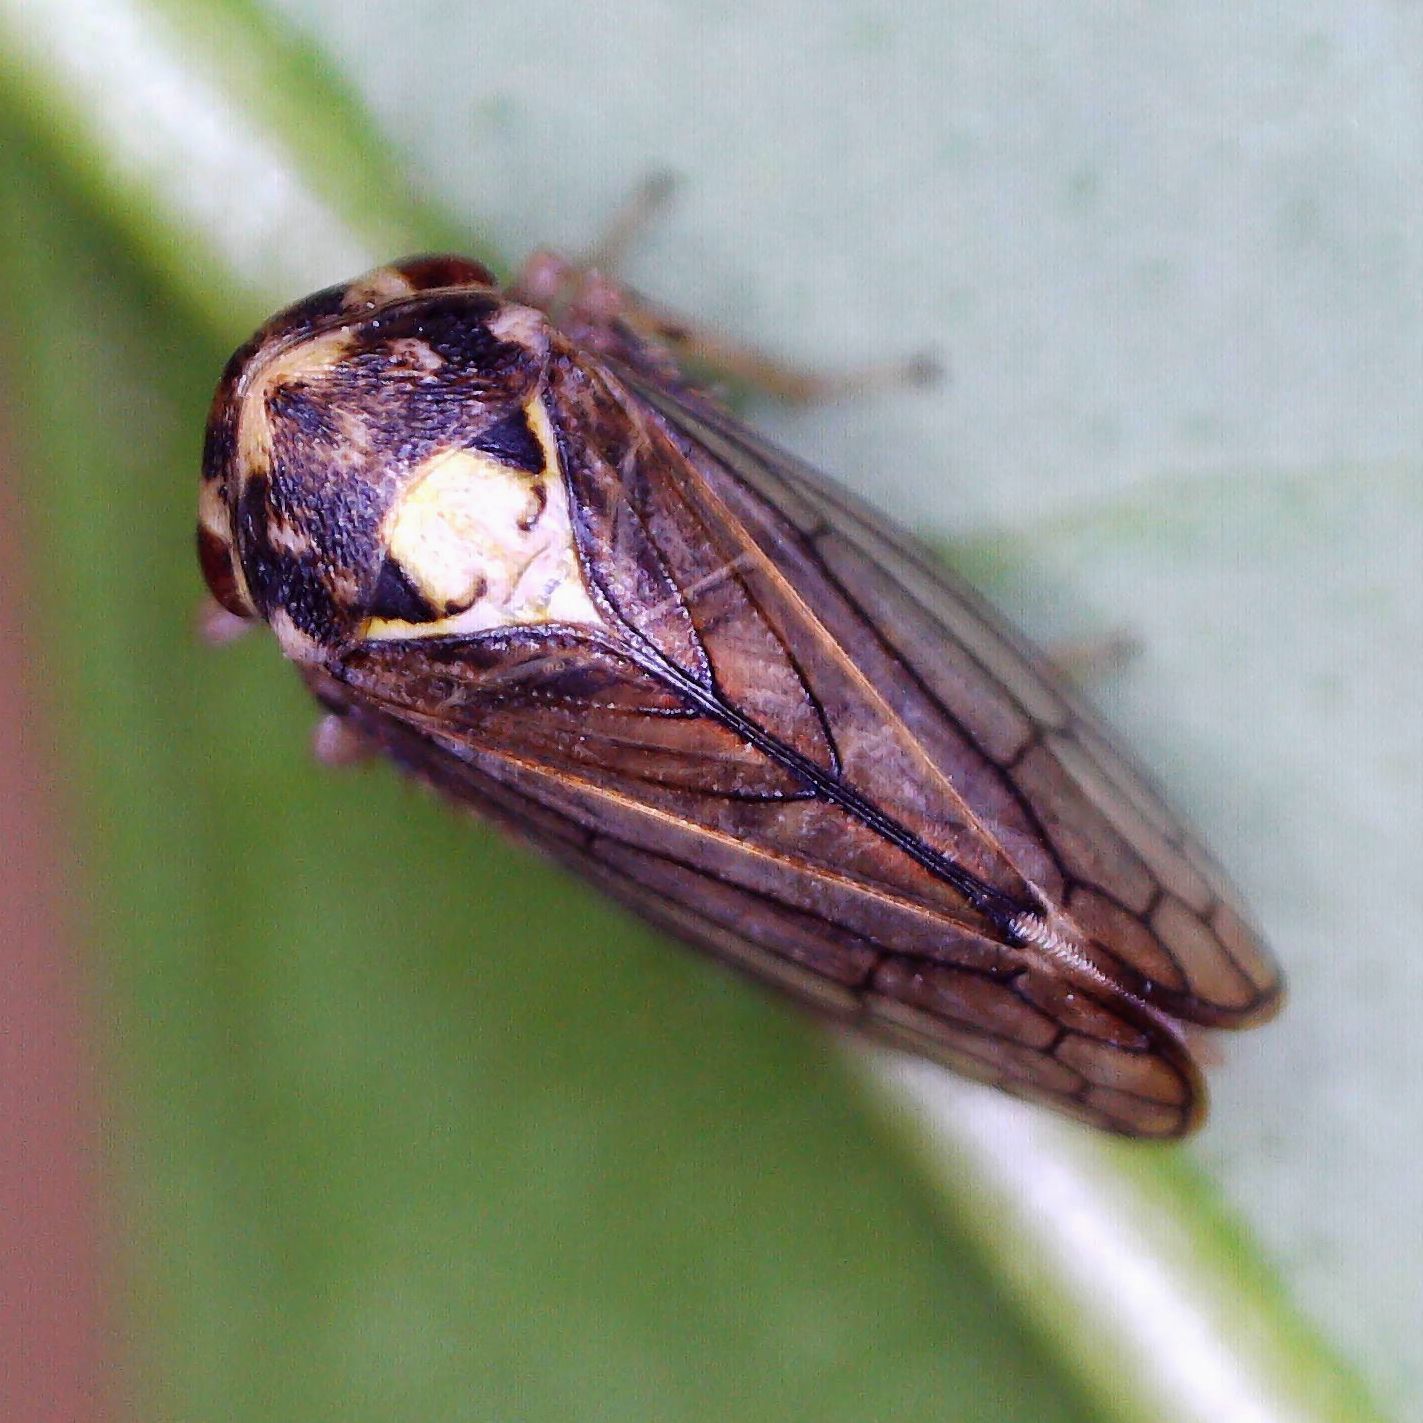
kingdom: Animalia
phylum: Arthropoda
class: Insecta
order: Hemiptera
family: Cicadellidae
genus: Macropsis
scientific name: Macropsis scutellata
